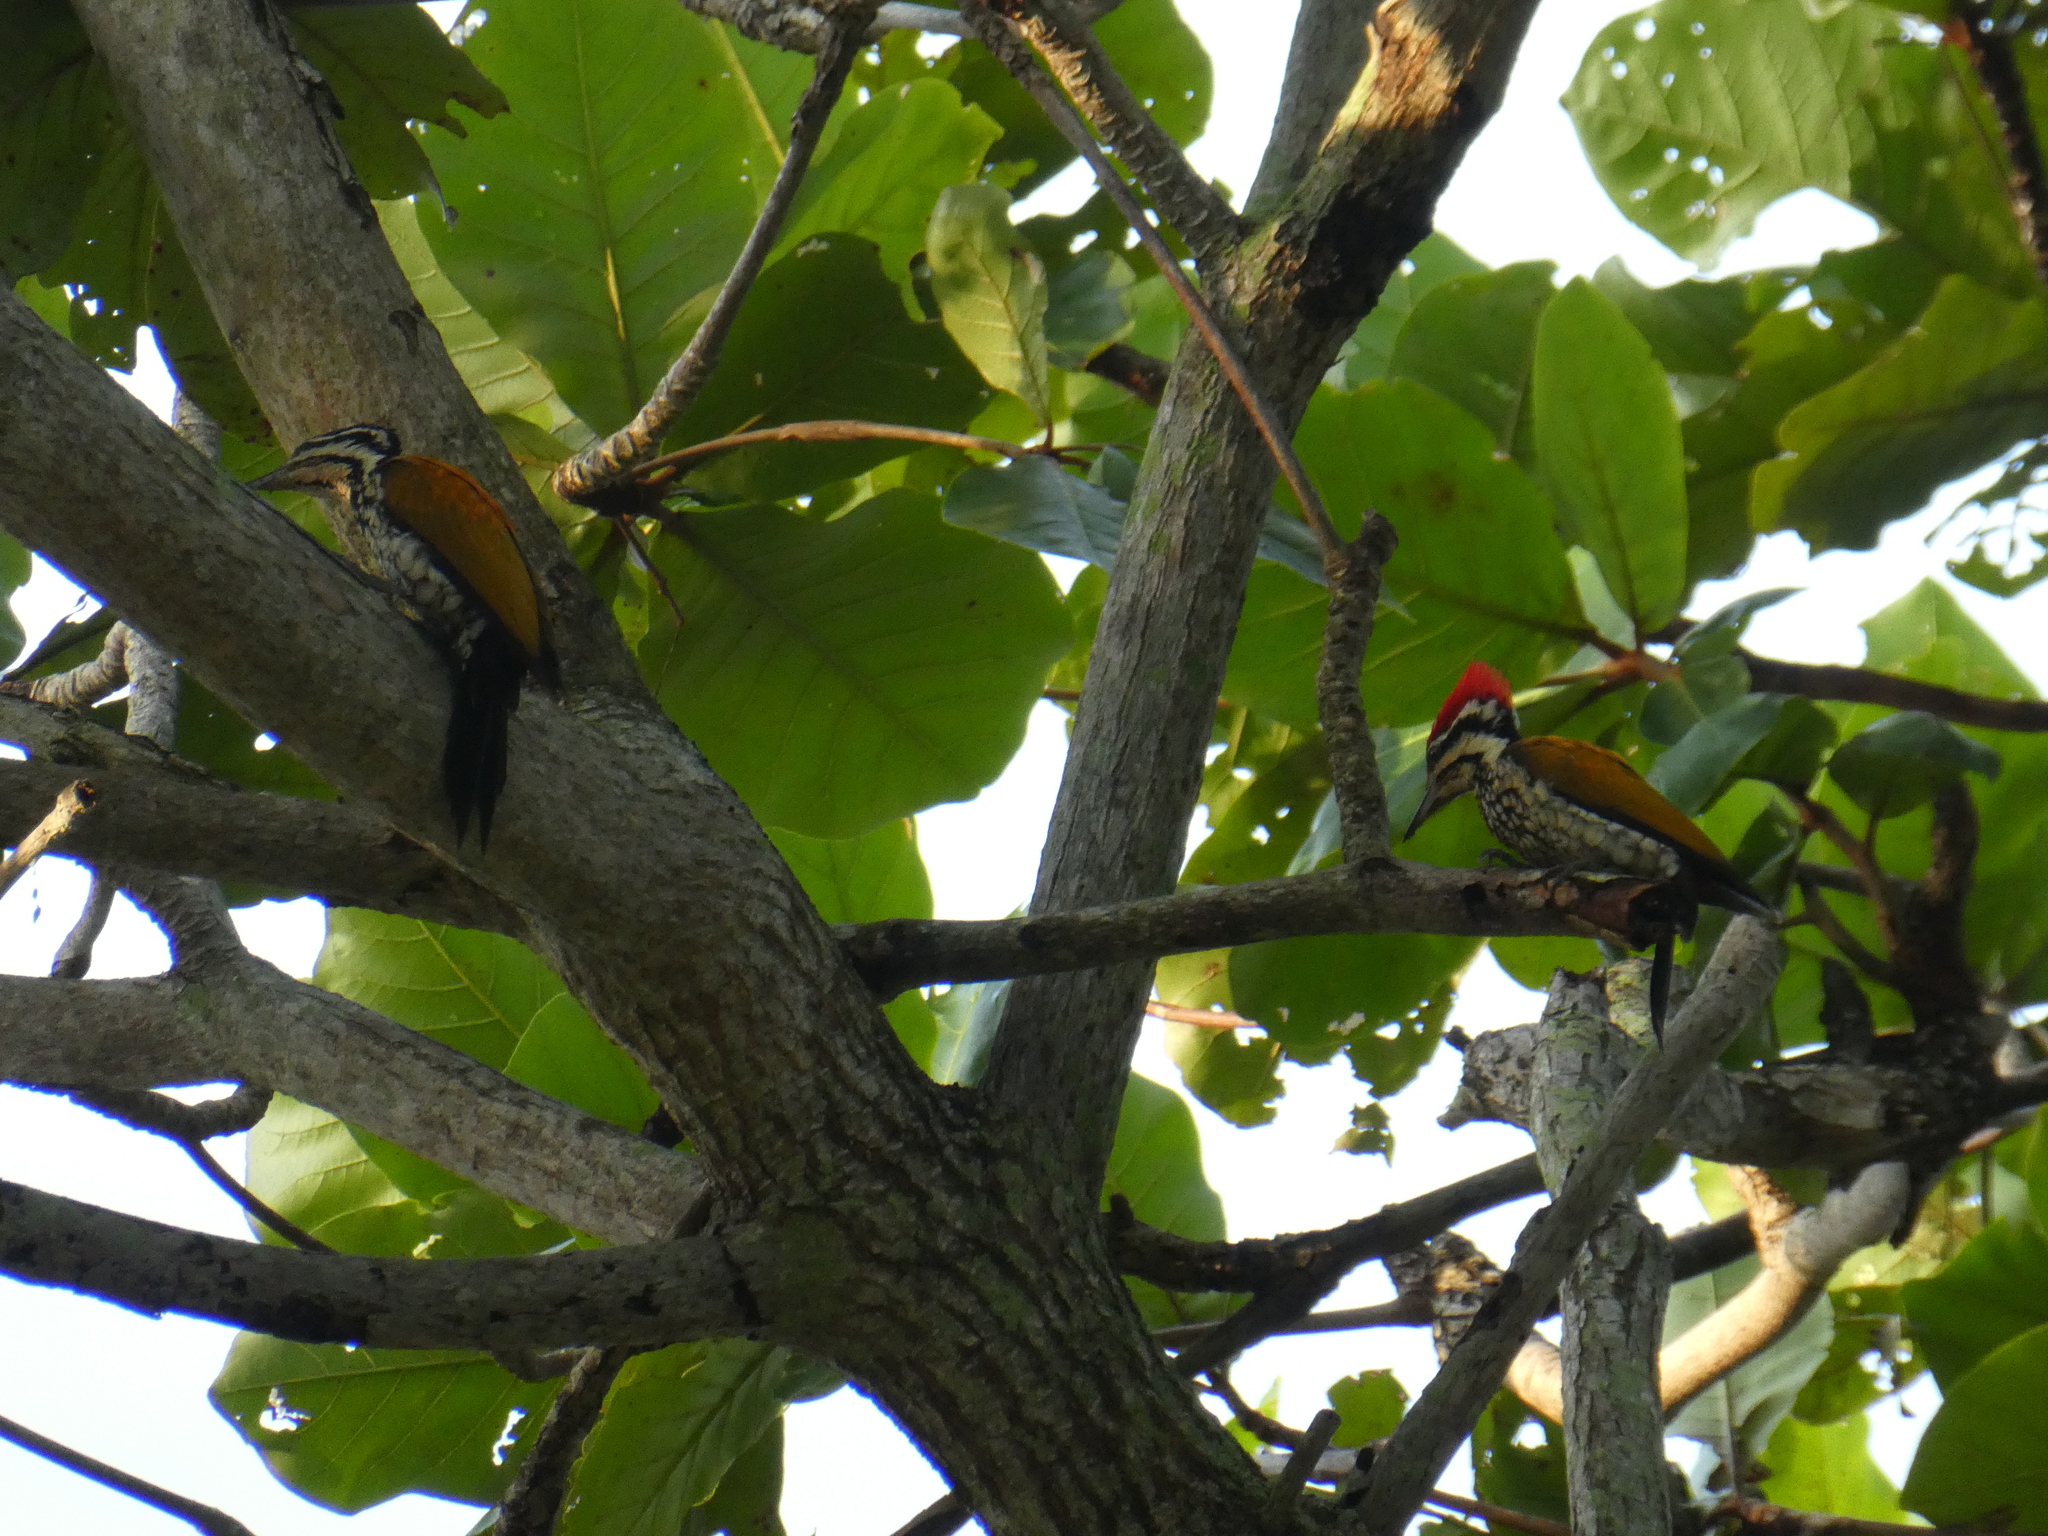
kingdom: Animalia
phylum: Chordata
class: Aves
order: Piciformes
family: Picidae
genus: Dinopium
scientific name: Dinopium javanense
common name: Common flameback
